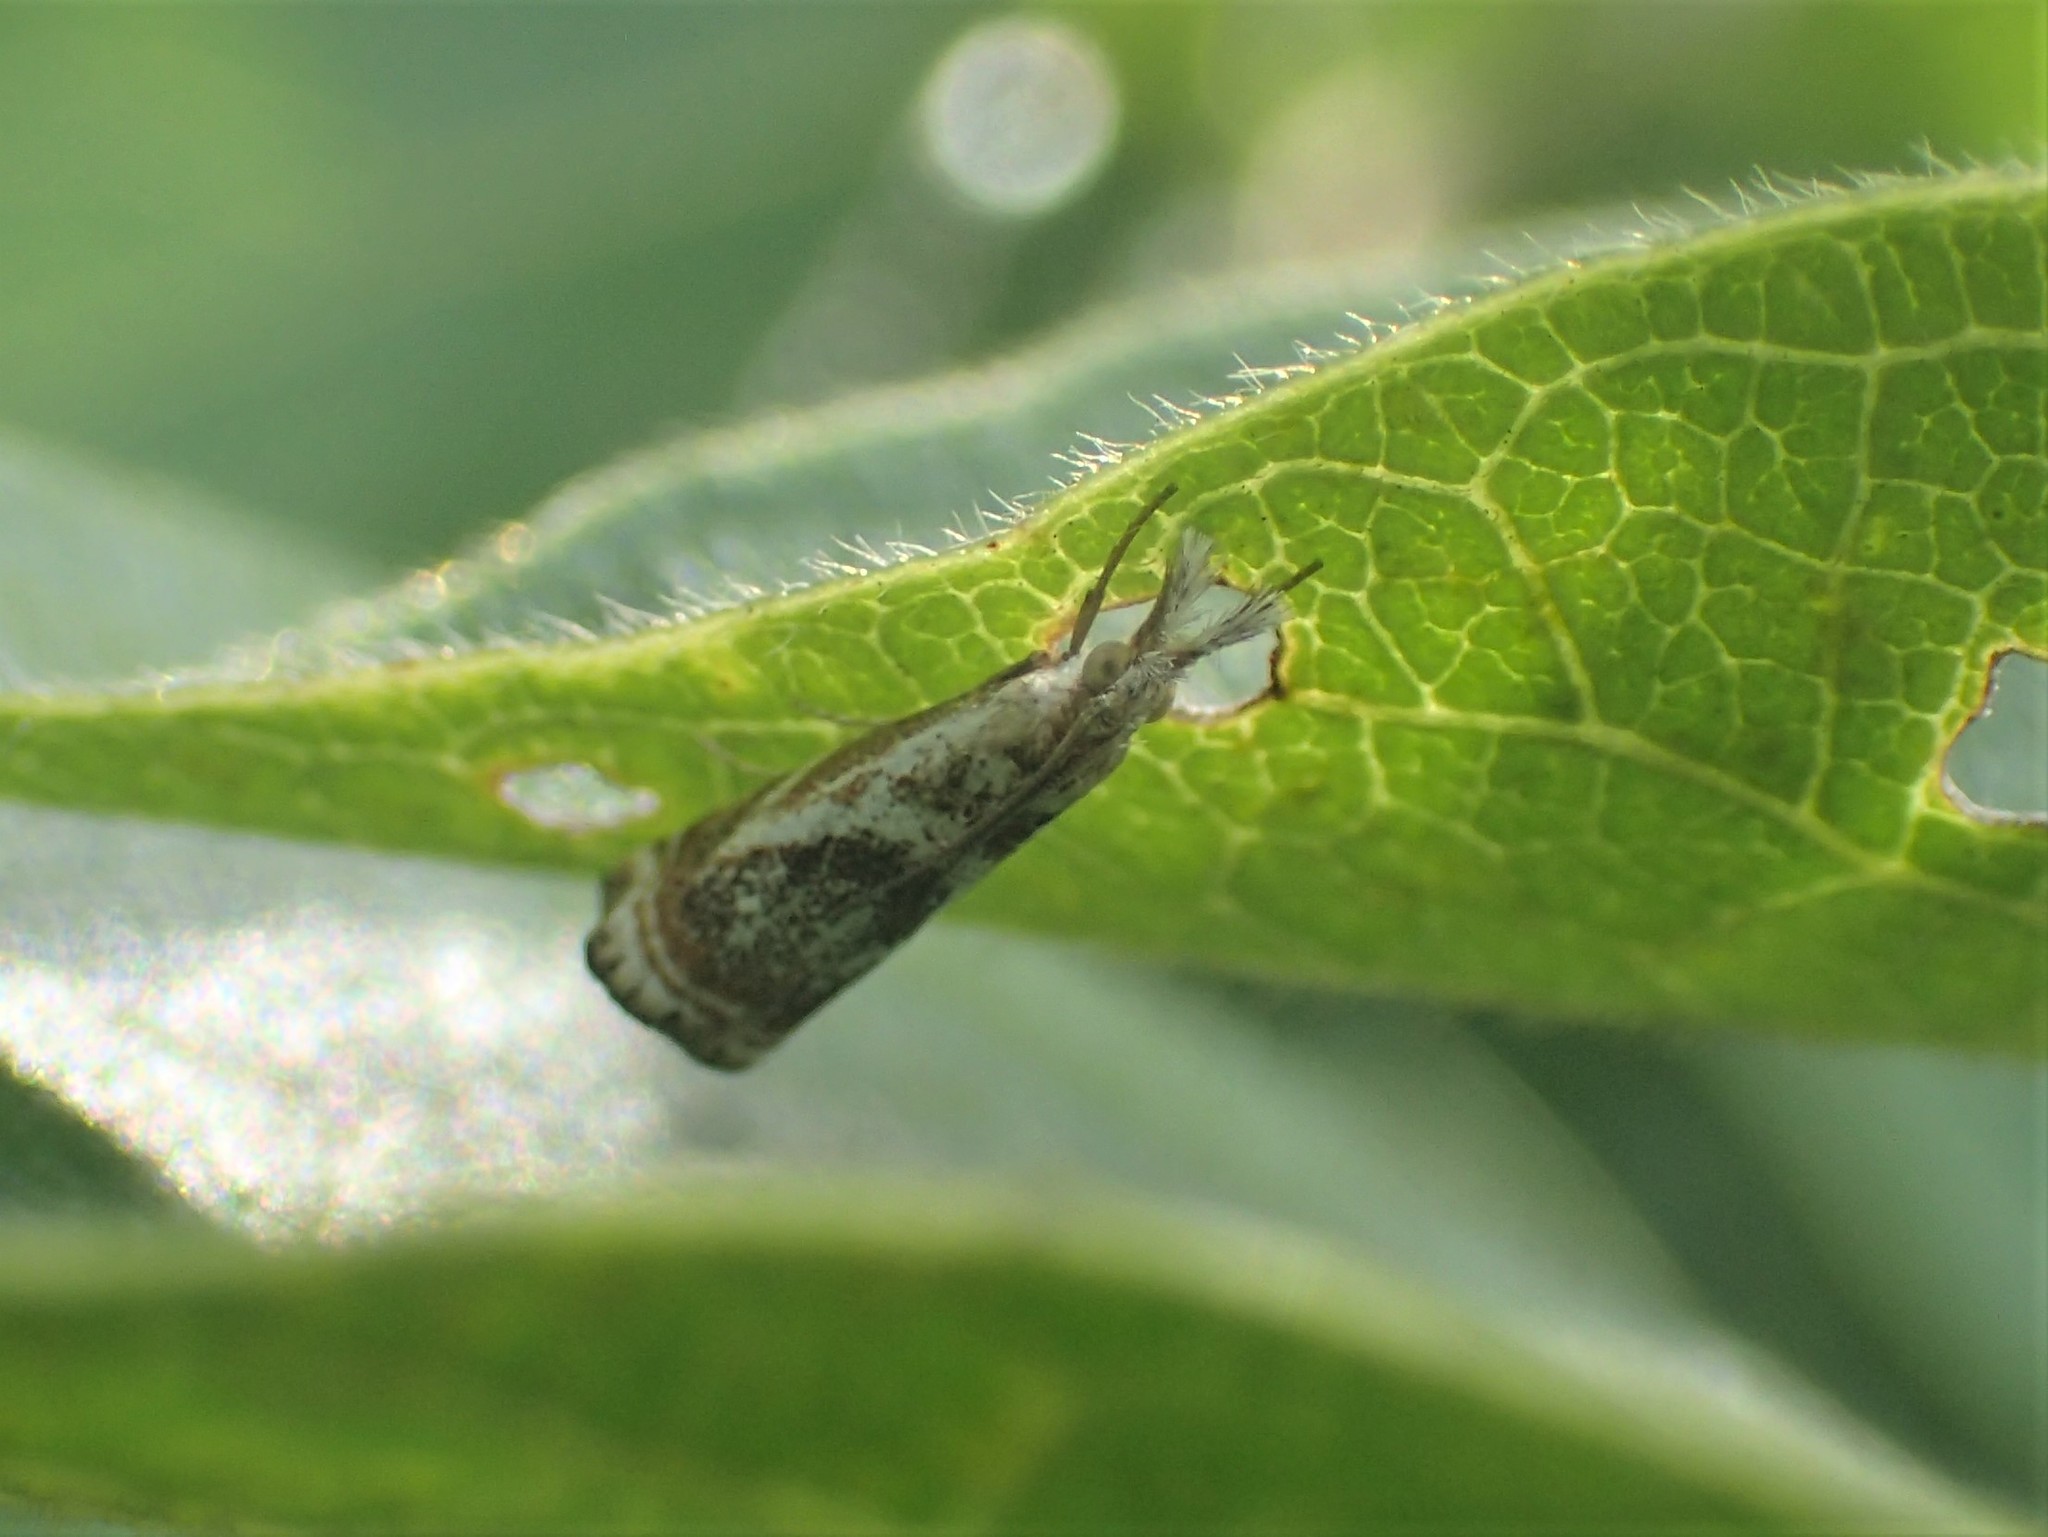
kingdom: Animalia
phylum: Arthropoda
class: Insecta
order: Lepidoptera
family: Crambidae
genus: Microcrambus
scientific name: Microcrambus elegans
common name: Elegant grass-veneer
